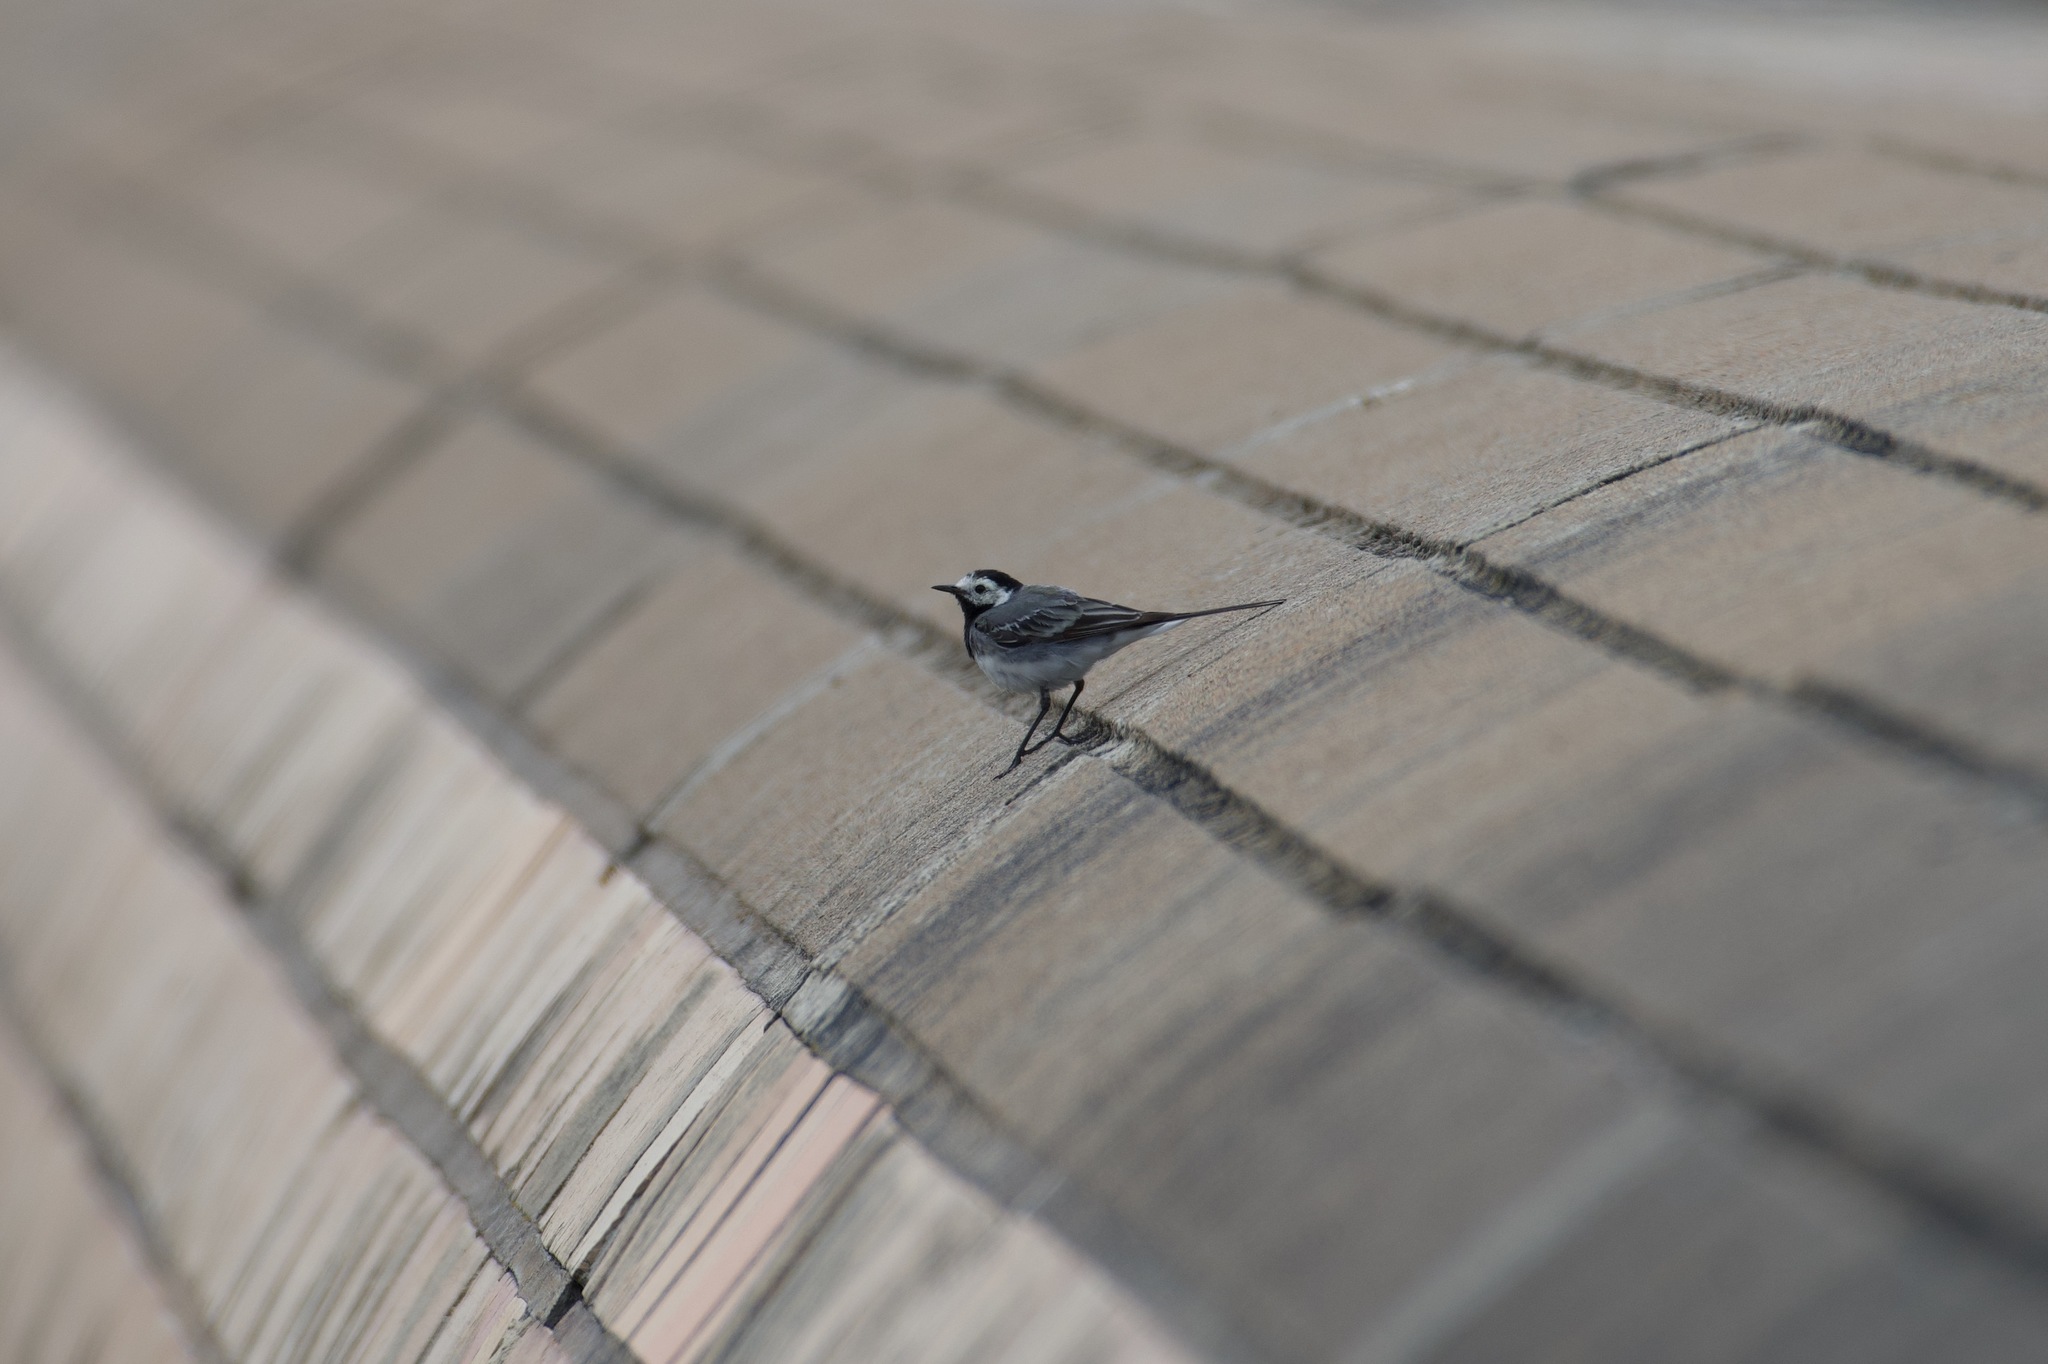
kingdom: Animalia
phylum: Chordata
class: Aves
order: Passeriformes
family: Motacillidae
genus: Motacilla
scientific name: Motacilla alba
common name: White wagtail
